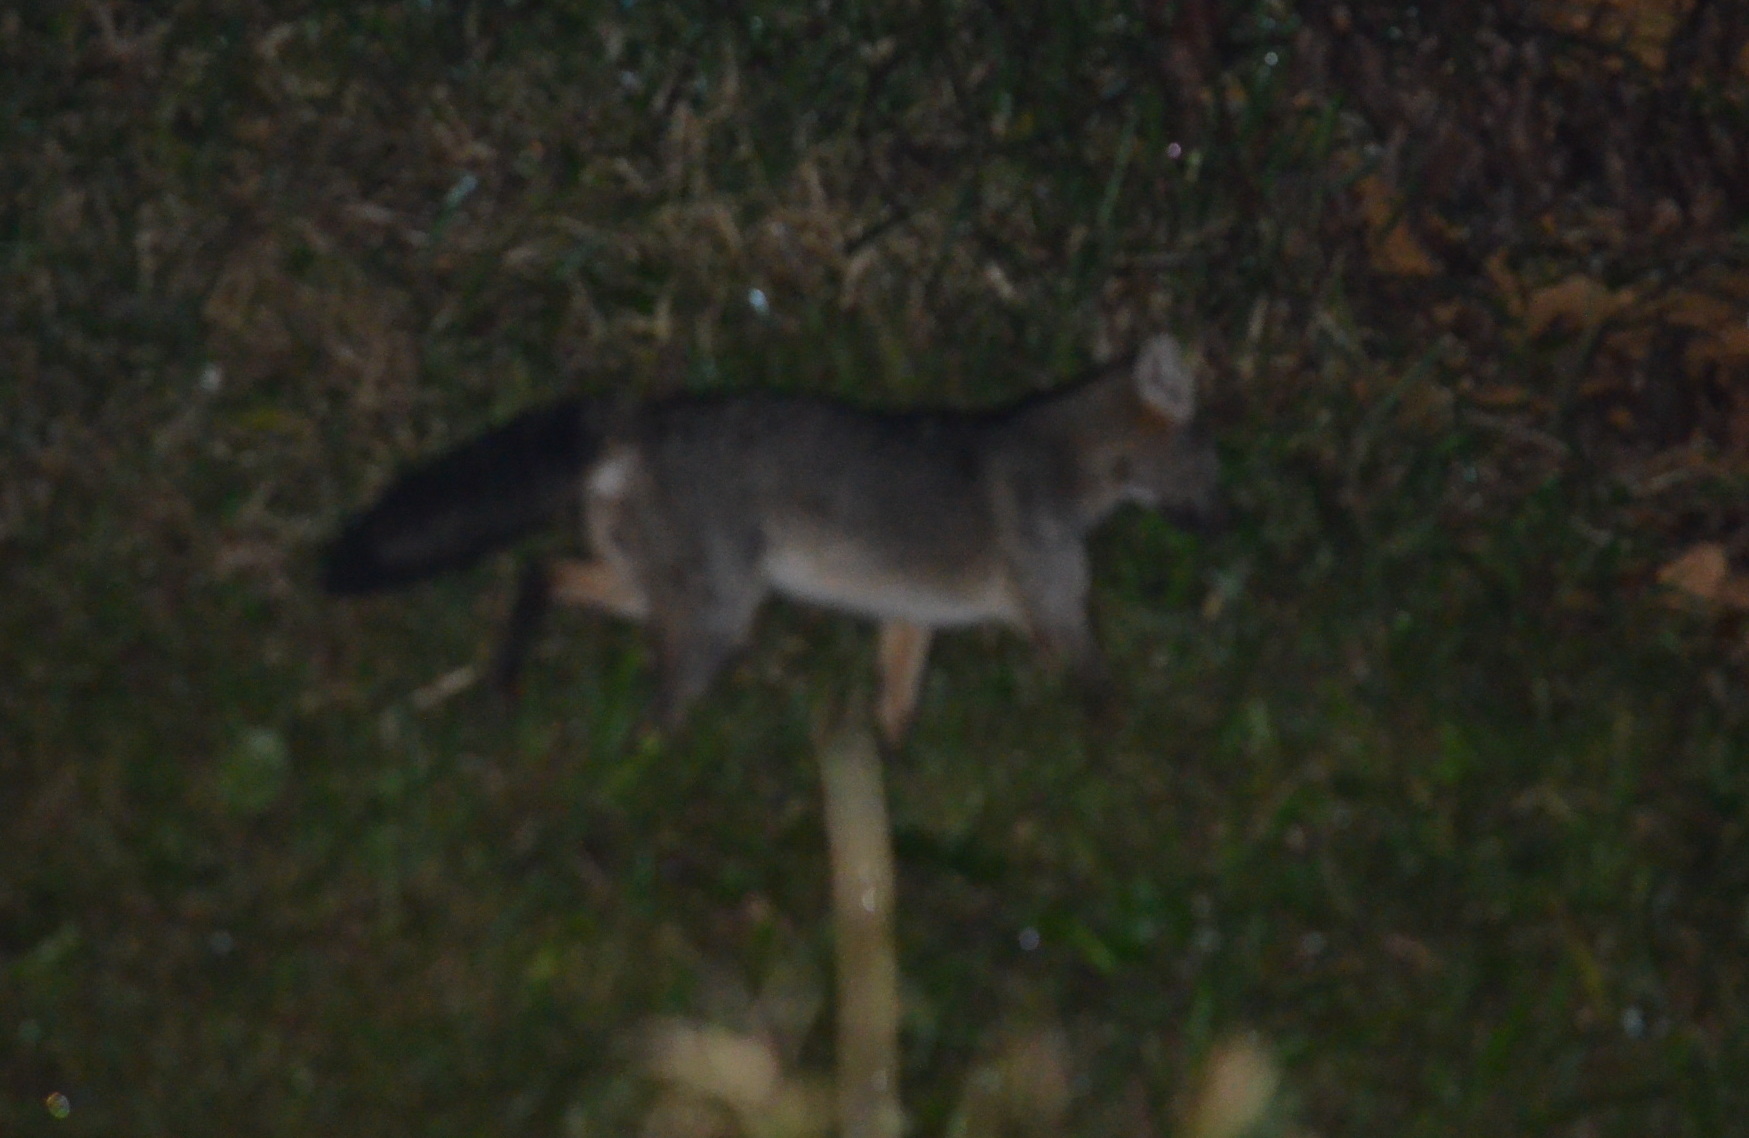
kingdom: Animalia
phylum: Chordata
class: Mammalia
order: Carnivora
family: Canidae
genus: Cerdocyon
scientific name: Cerdocyon thous
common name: Crab-eating fox
